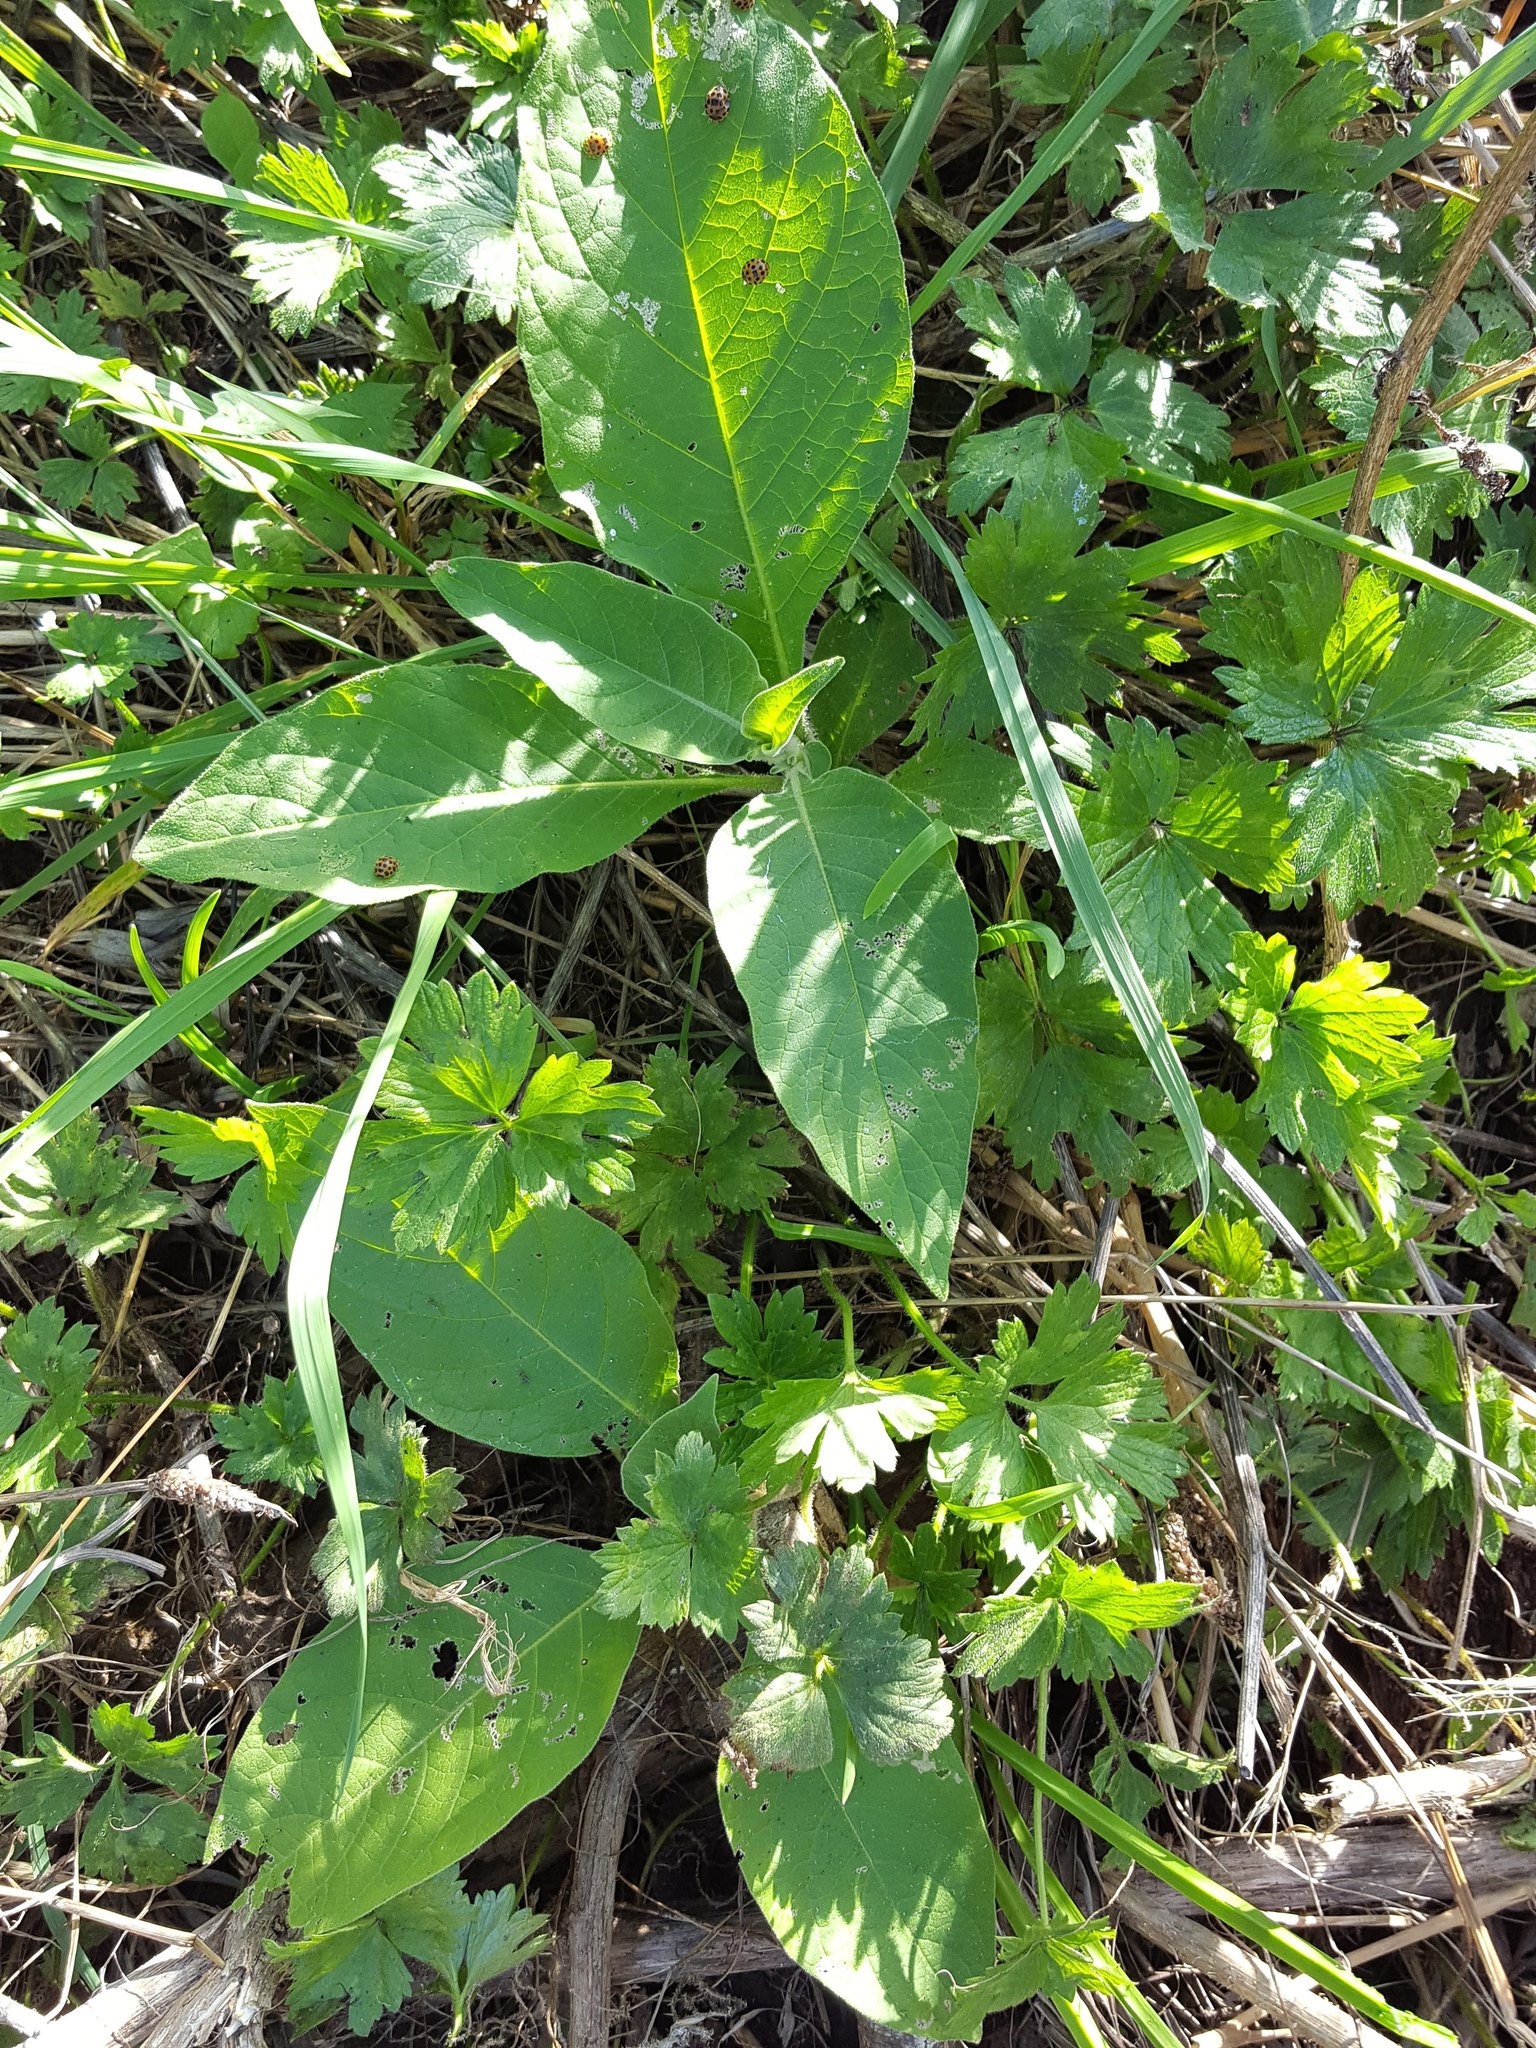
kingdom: Plantae
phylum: Tracheophyta
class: Magnoliopsida
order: Solanales
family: Solanaceae
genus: Solanum
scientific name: Solanum mauritianum
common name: Earleaf nightshade
